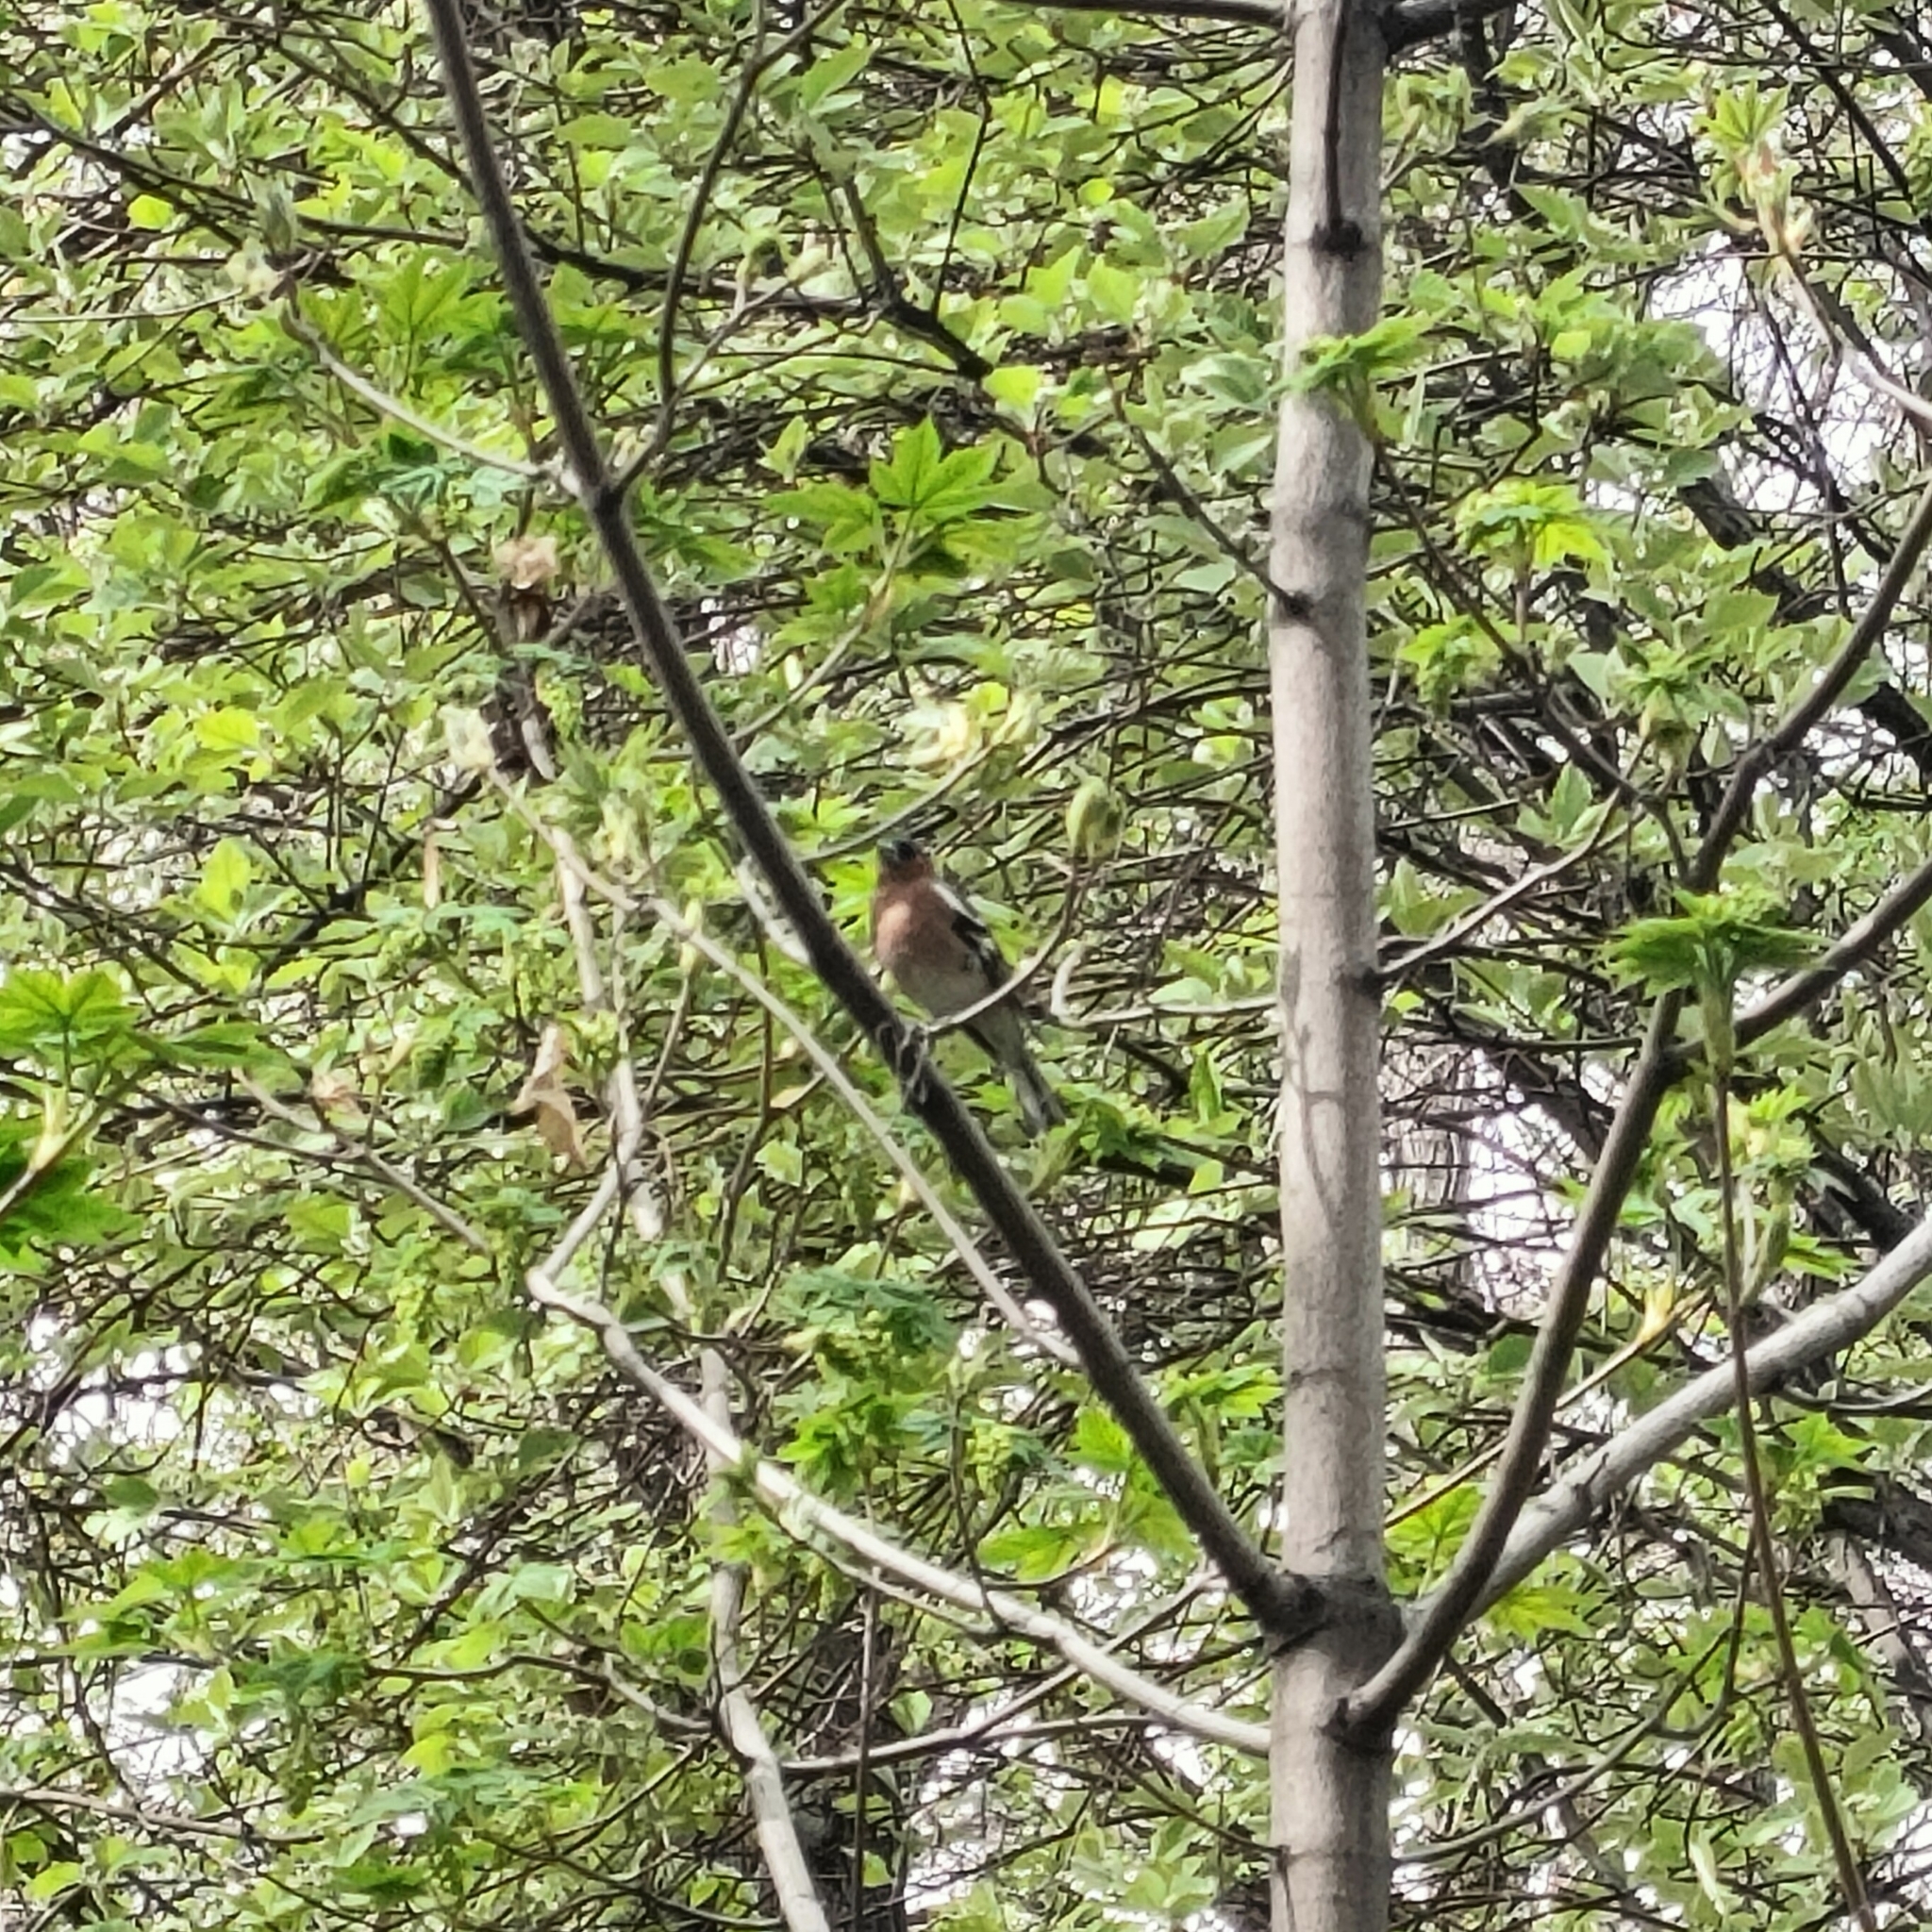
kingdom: Animalia
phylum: Chordata
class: Aves
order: Passeriformes
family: Fringillidae
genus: Fringilla
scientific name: Fringilla coelebs
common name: Common chaffinch
